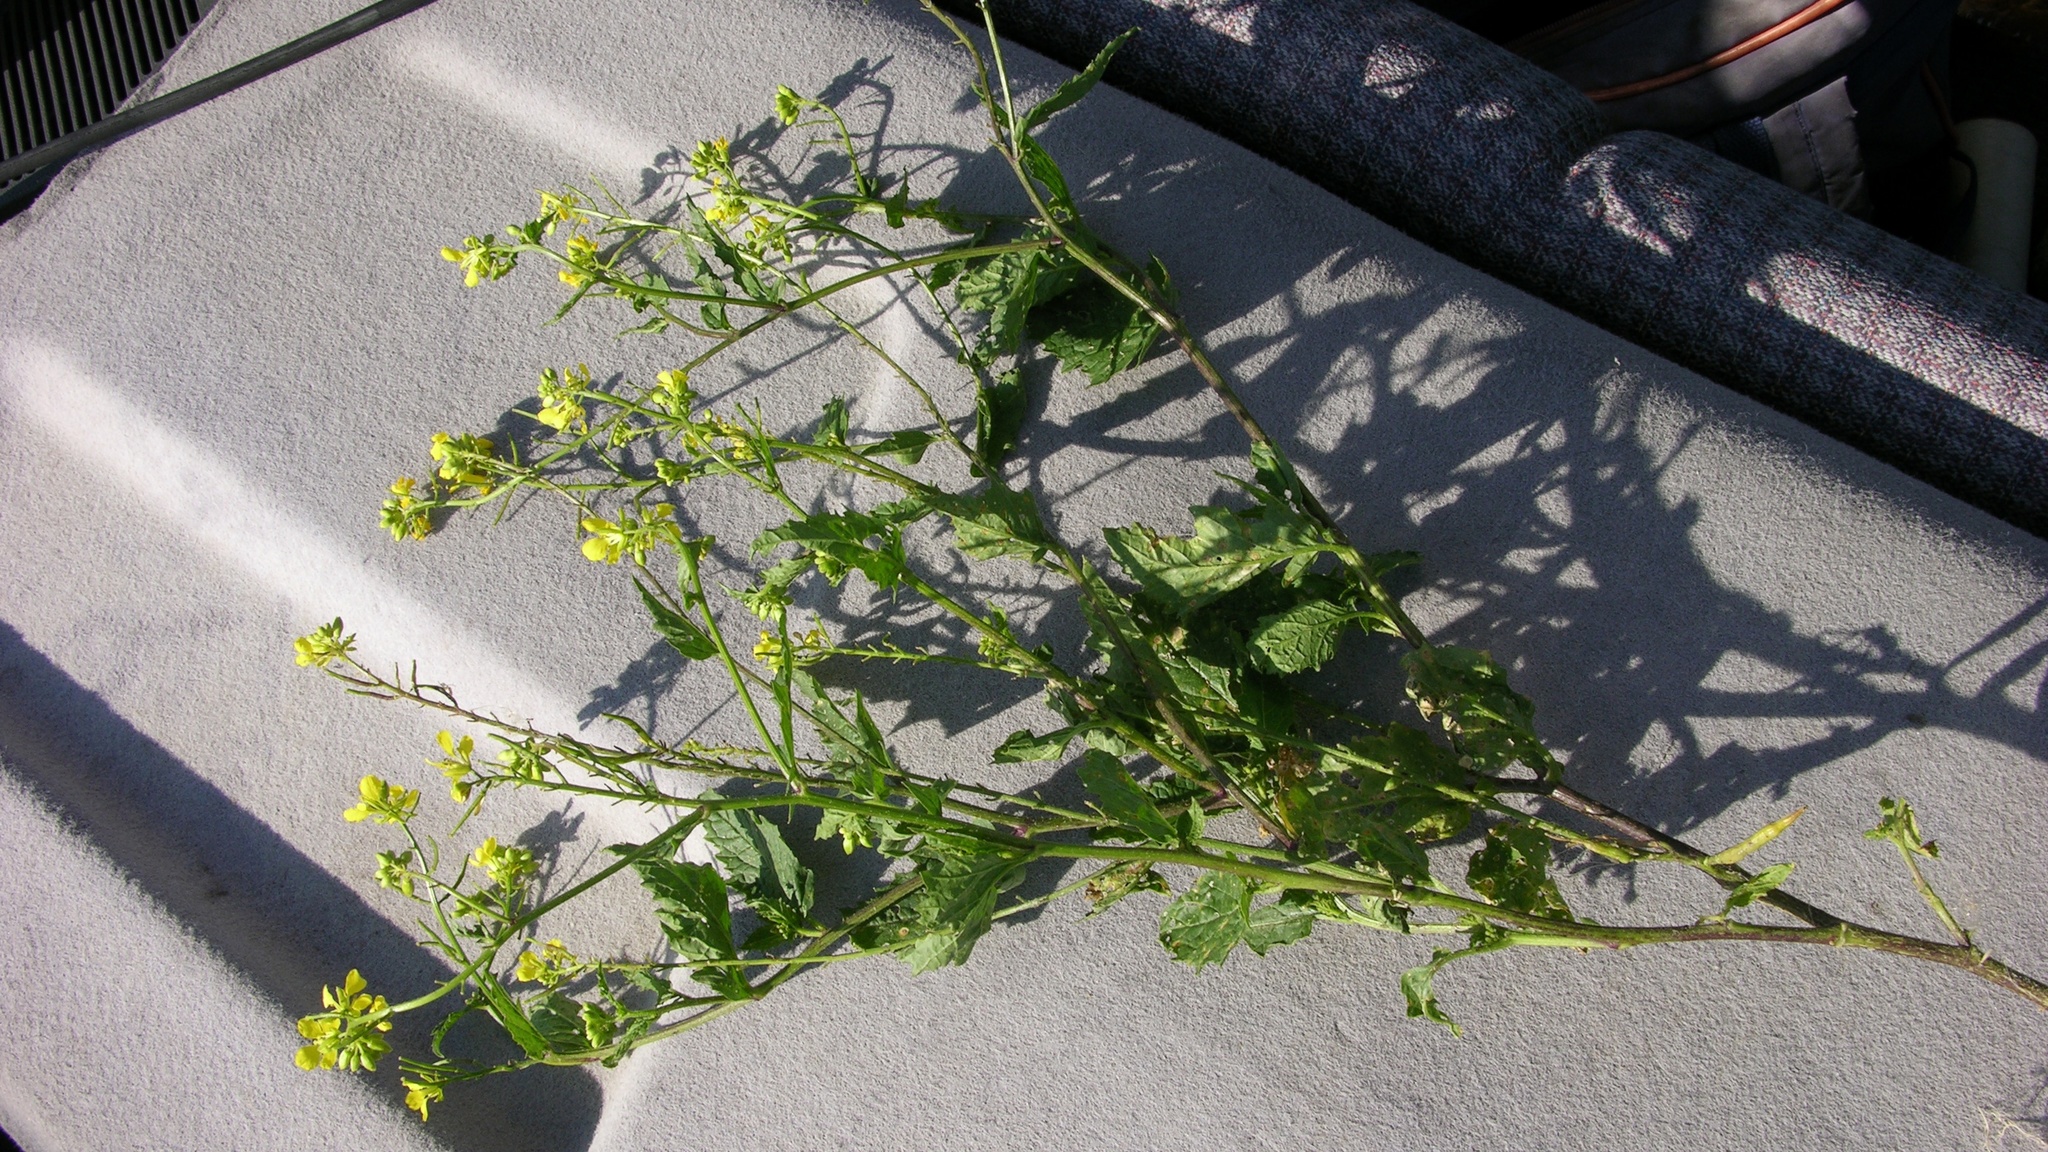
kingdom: Plantae
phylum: Tracheophyta
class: Magnoliopsida
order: Brassicales
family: Brassicaceae
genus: Sinapis
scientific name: Sinapis arvensis
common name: Charlock
